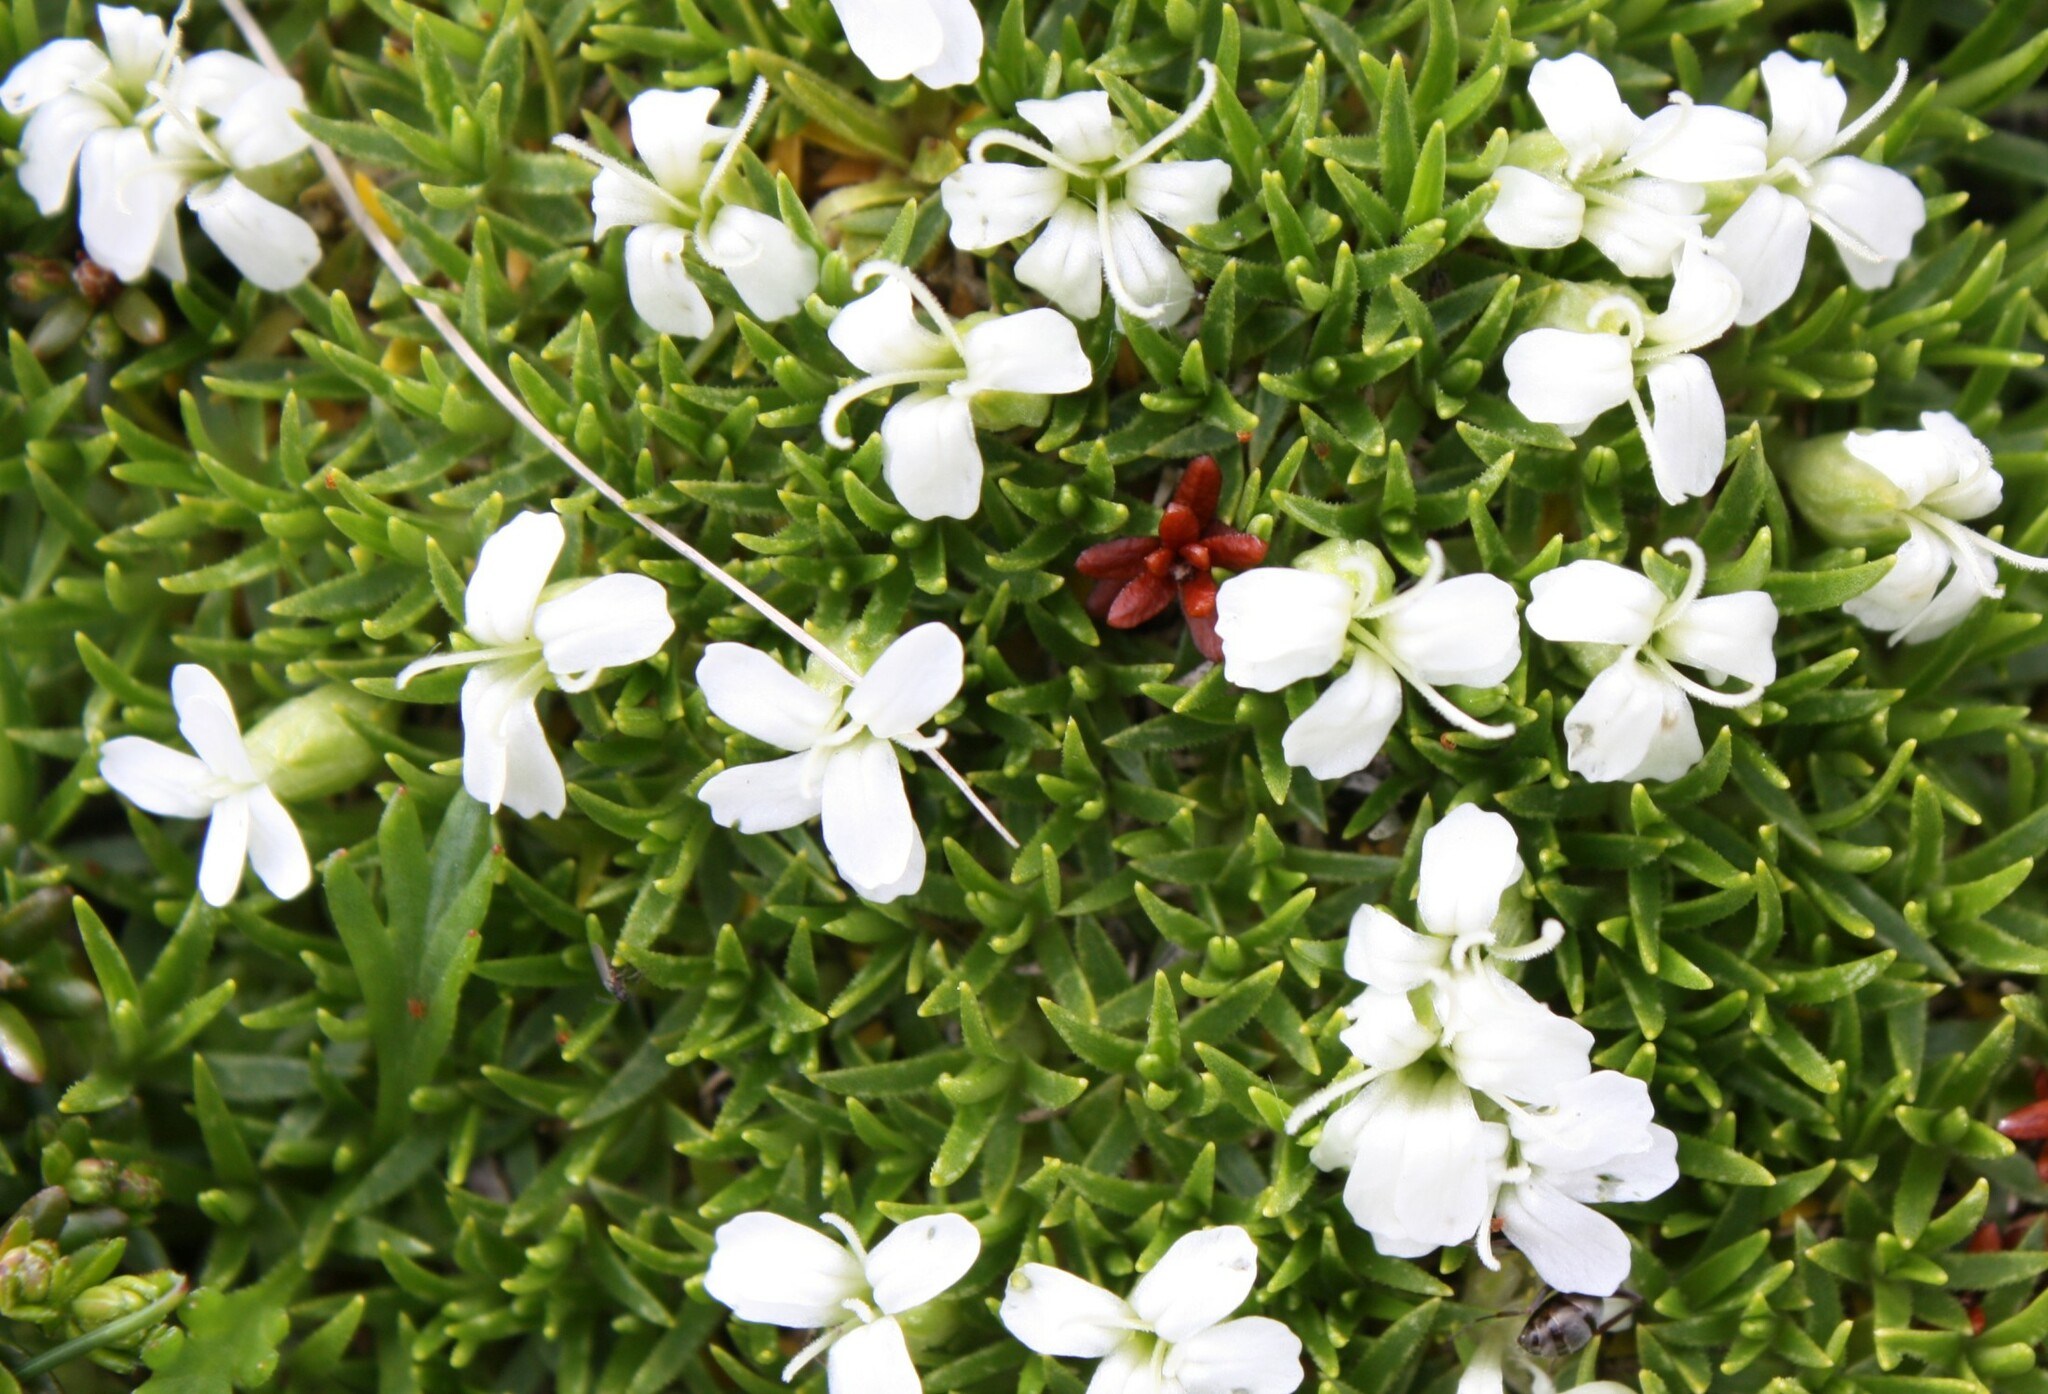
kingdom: Plantae
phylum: Tracheophyta
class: Magnoliopsida
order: Caryophyllales
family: Caryophyllaceae
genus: Silene
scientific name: Silene acaulis
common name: Moss campion
